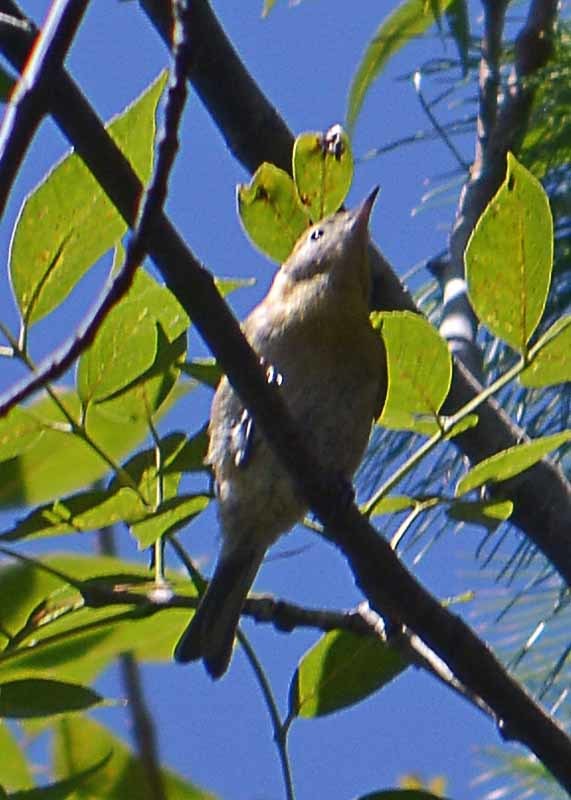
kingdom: Animalia
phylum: Chordata
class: Aves
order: Passeriformes
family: Peucedramidae
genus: Peucedramus
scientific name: Peucedramus taeniatus
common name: Olive warbler
